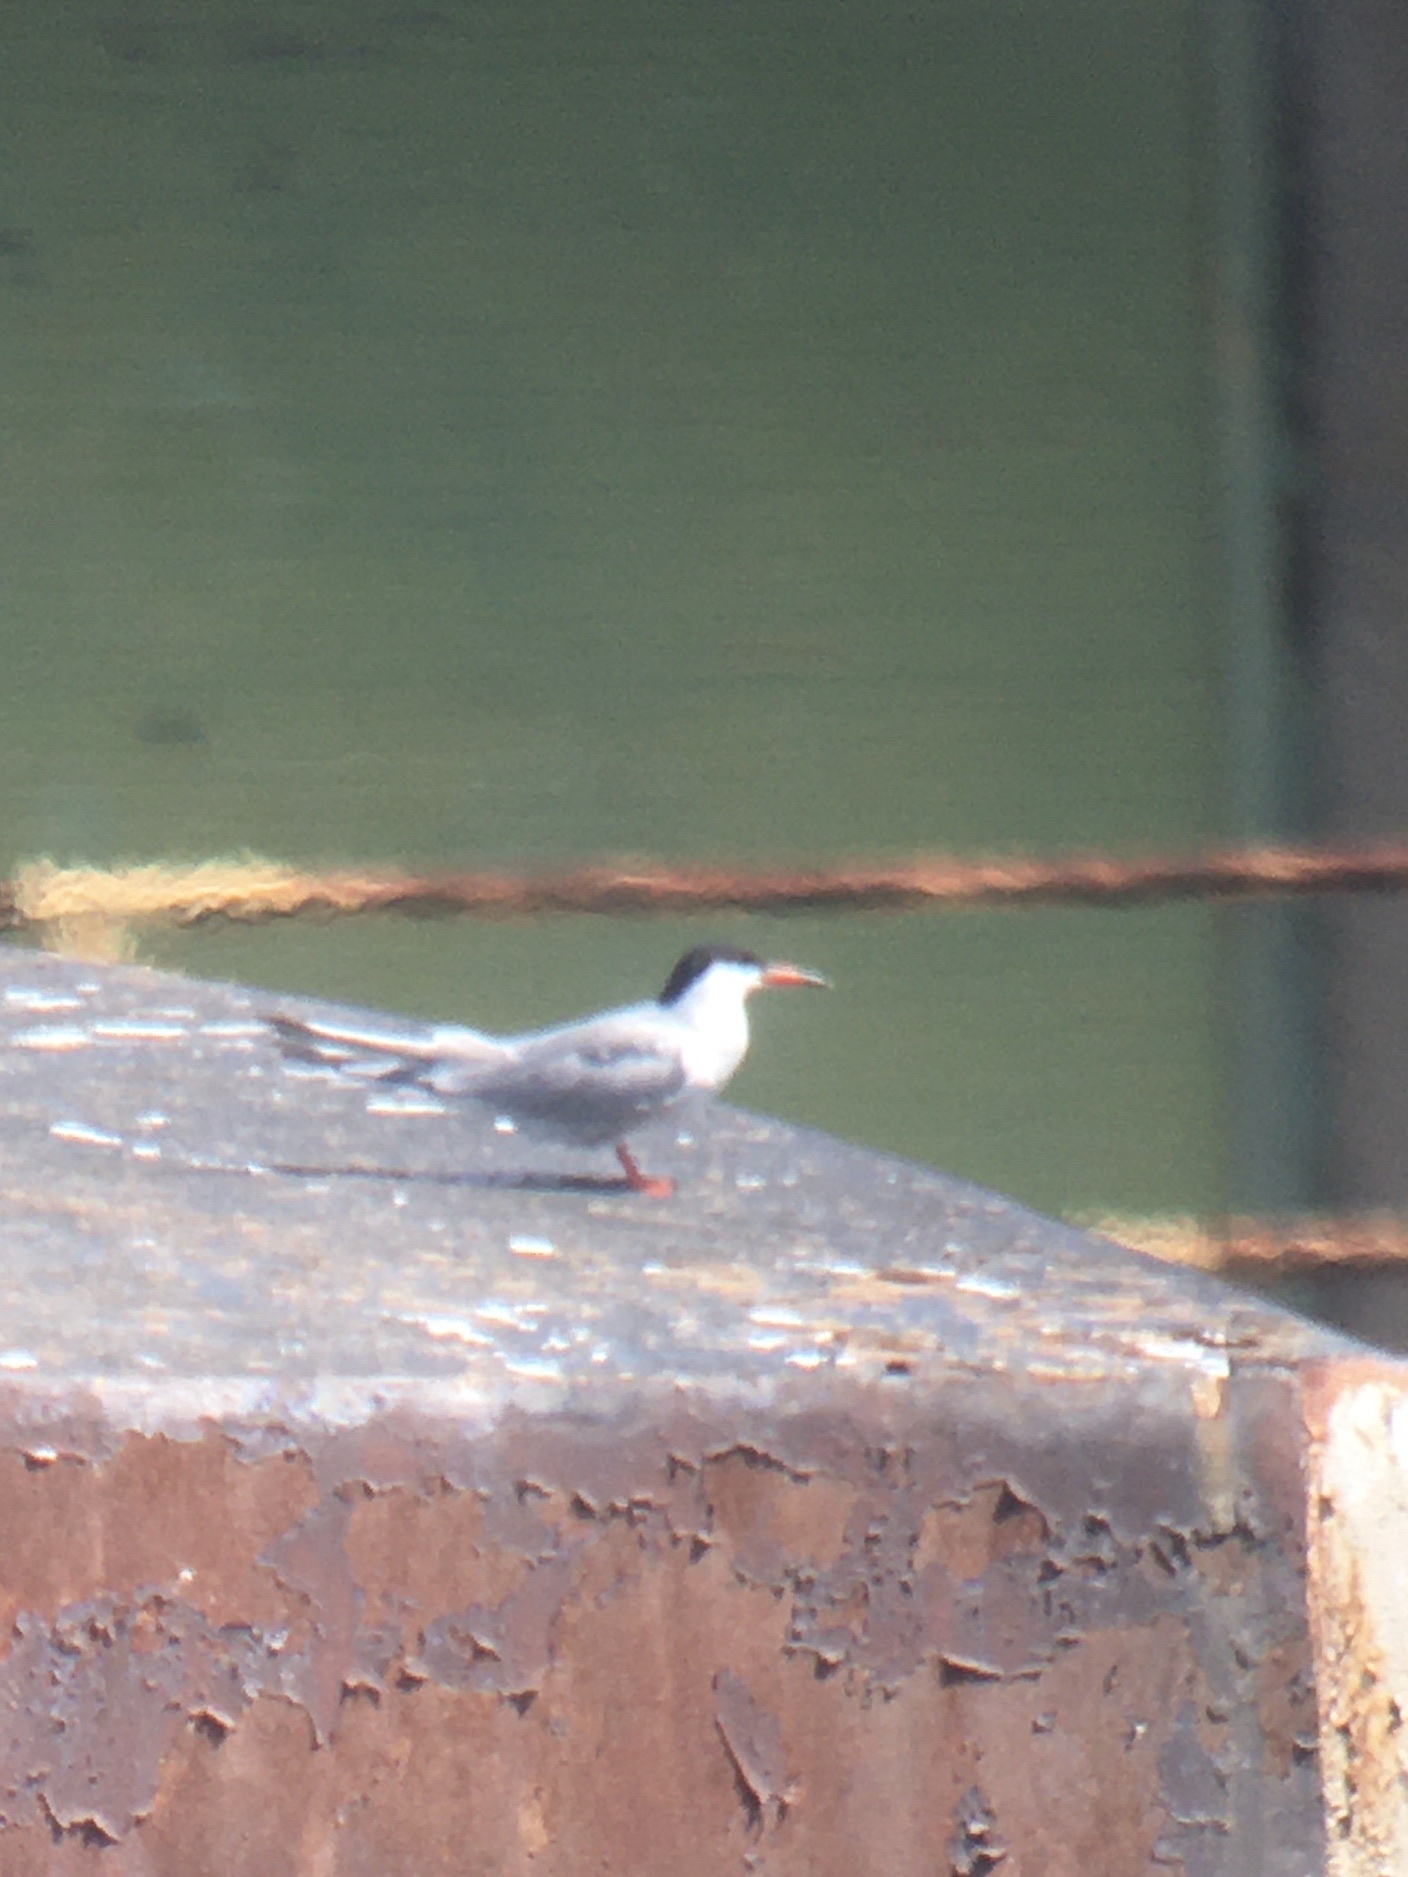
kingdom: Animalia
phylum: Chordata
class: Aves
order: Charadriiformes
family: Laridae
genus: Sterna
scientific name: Sterna hirundo
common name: Common tern
